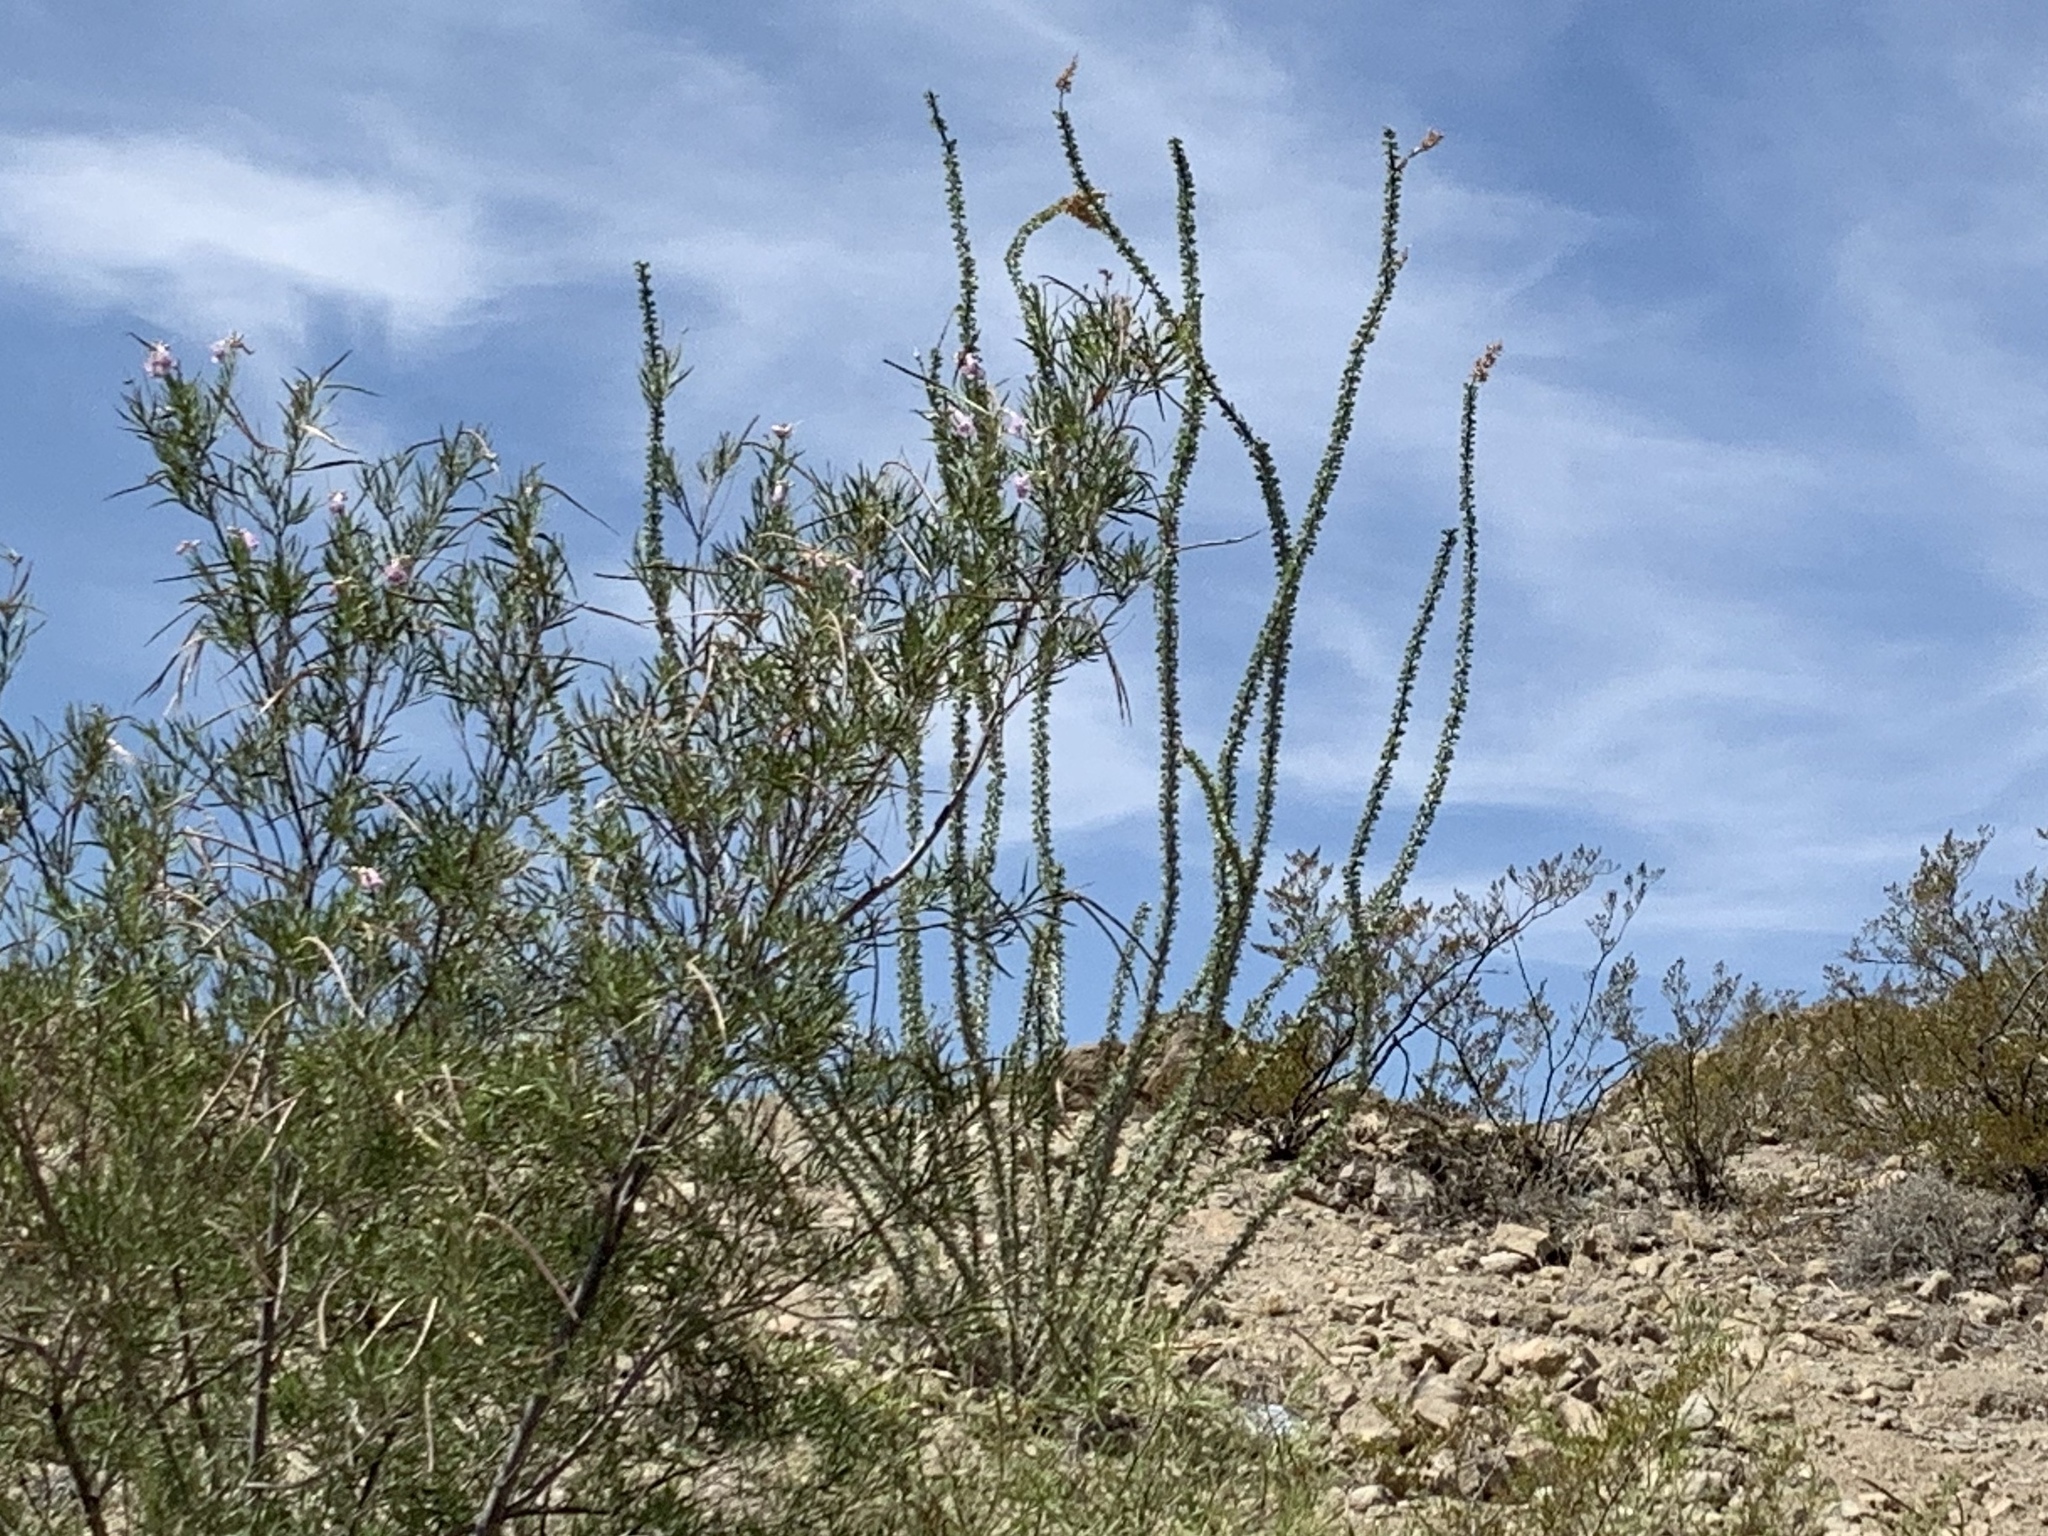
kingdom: Plantae
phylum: Tracheophyta
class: Magnoliopsida
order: Lamiales
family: Bignoniaceae
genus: Chilopsis
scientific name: Chilopsis linearis
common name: Desert-willow
